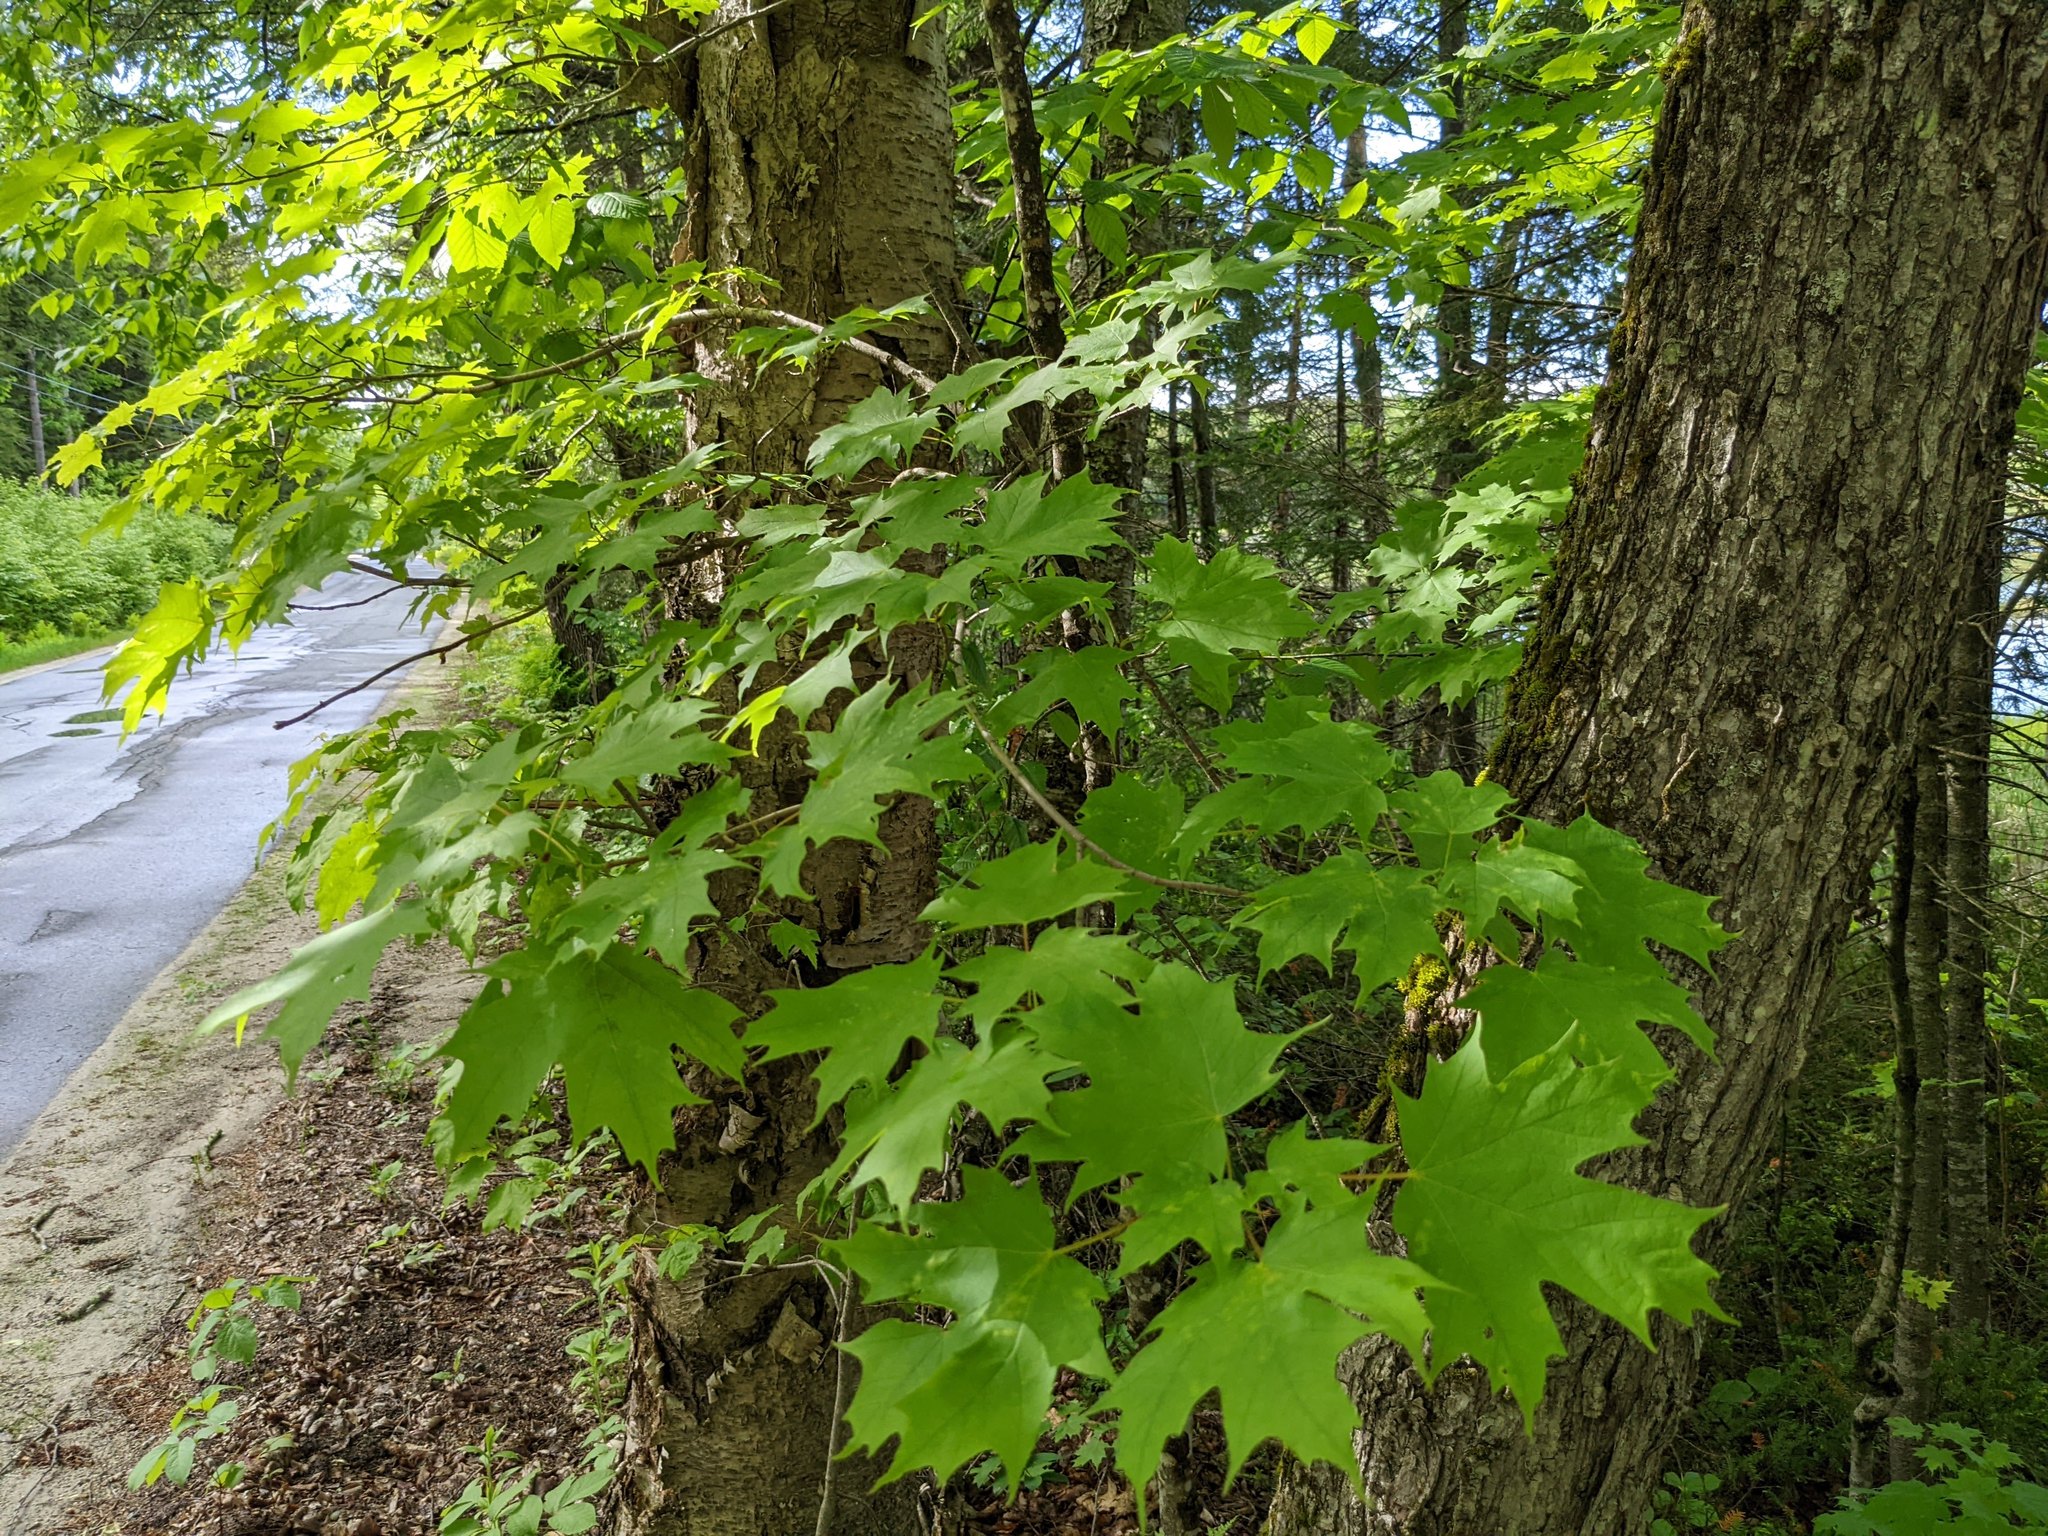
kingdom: Plantae
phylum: Tracheophyta
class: Magnoliopsida
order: Sapindales
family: Sapindaceae
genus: Acer
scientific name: Acer saccharum
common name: Sugar maple
